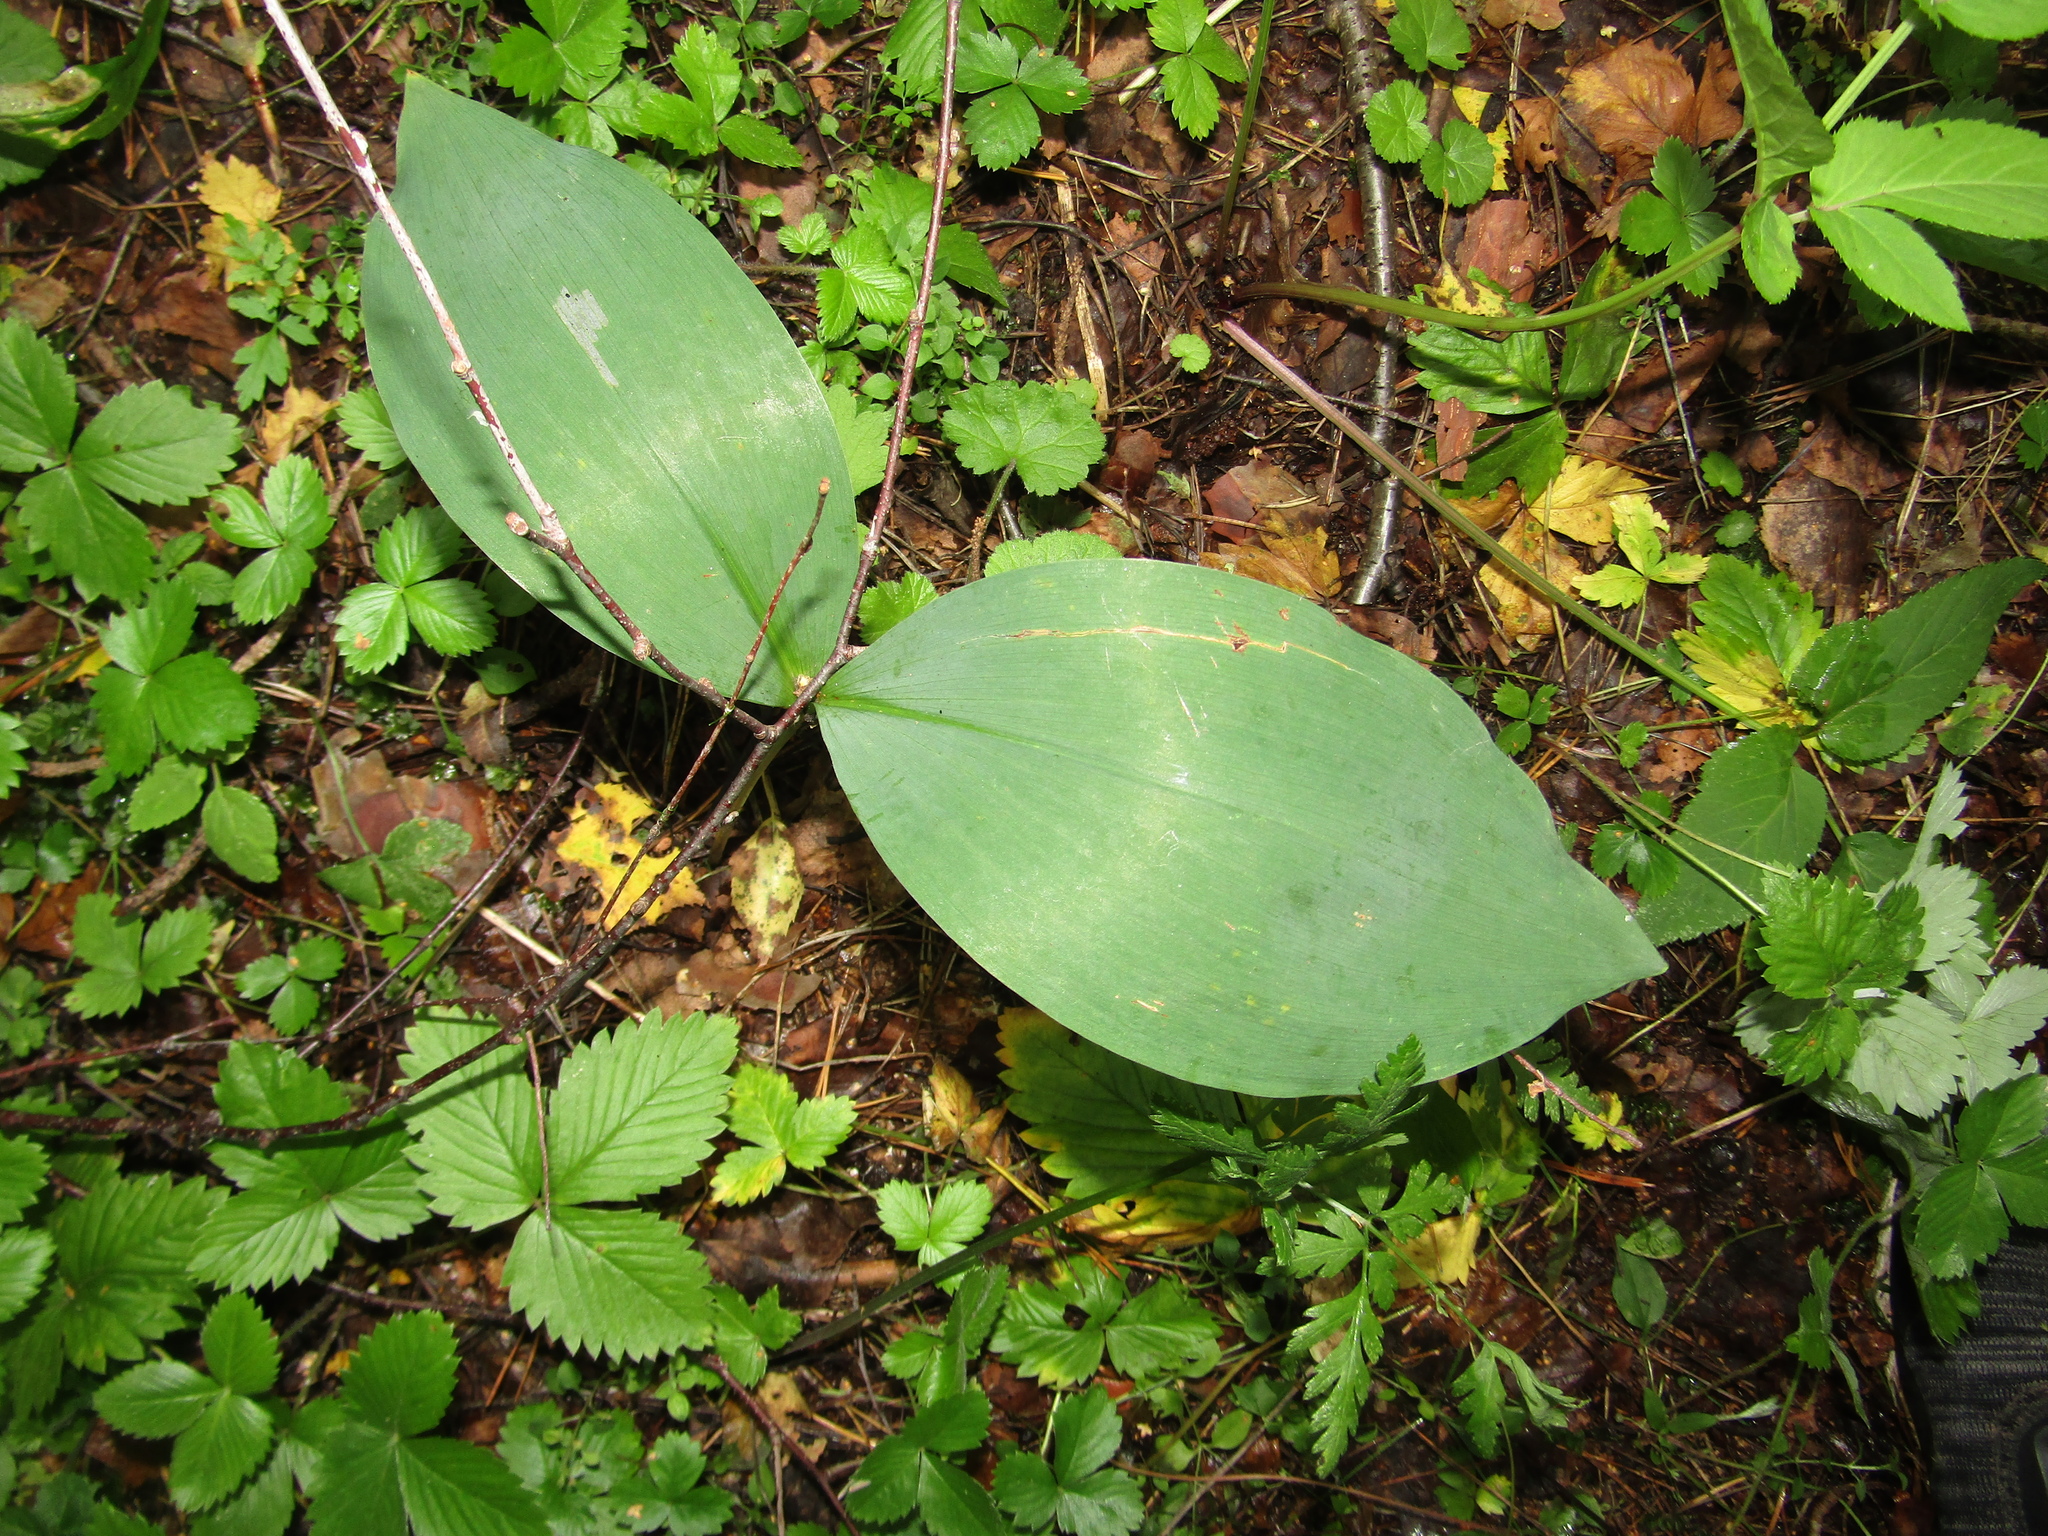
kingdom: Plantae
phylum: Tracheophyta
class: Liliopsida
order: Asparagales
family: Asparagaceae
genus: Convallaria
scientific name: Convallaria majalis
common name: Lily-of-the-valley
